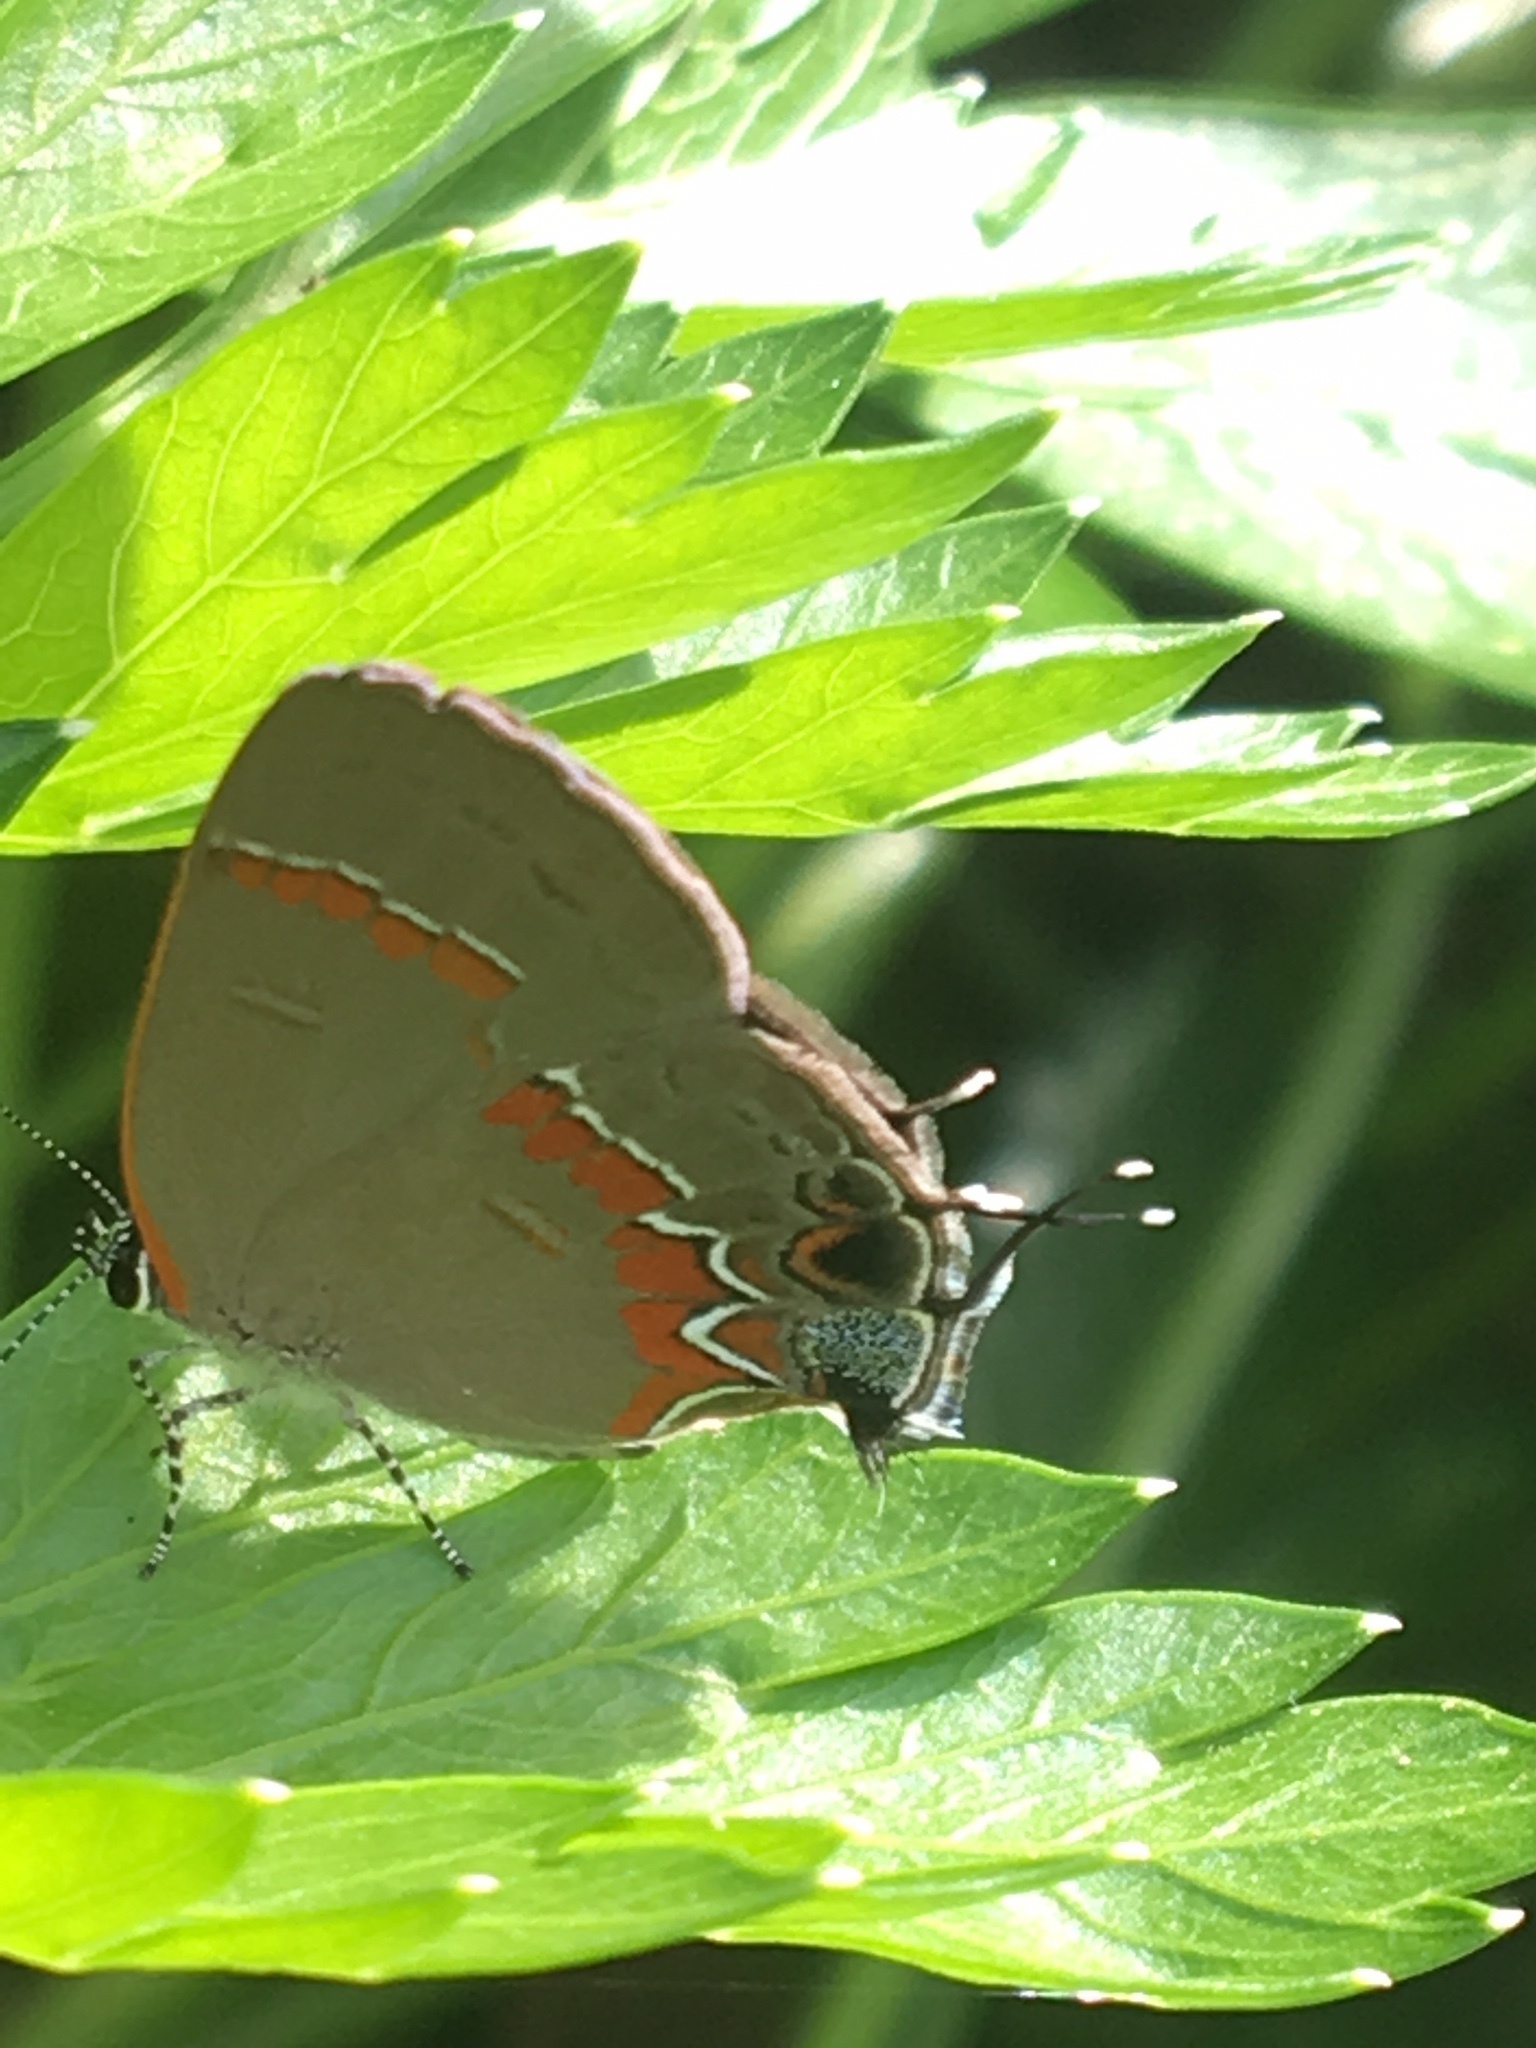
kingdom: Animalia
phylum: Arthropoda
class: Insecta
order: Lepidoptera
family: Lycaenidae
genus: Calycopis
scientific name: Calycopis cecrops
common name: Red-banded hairstreak
